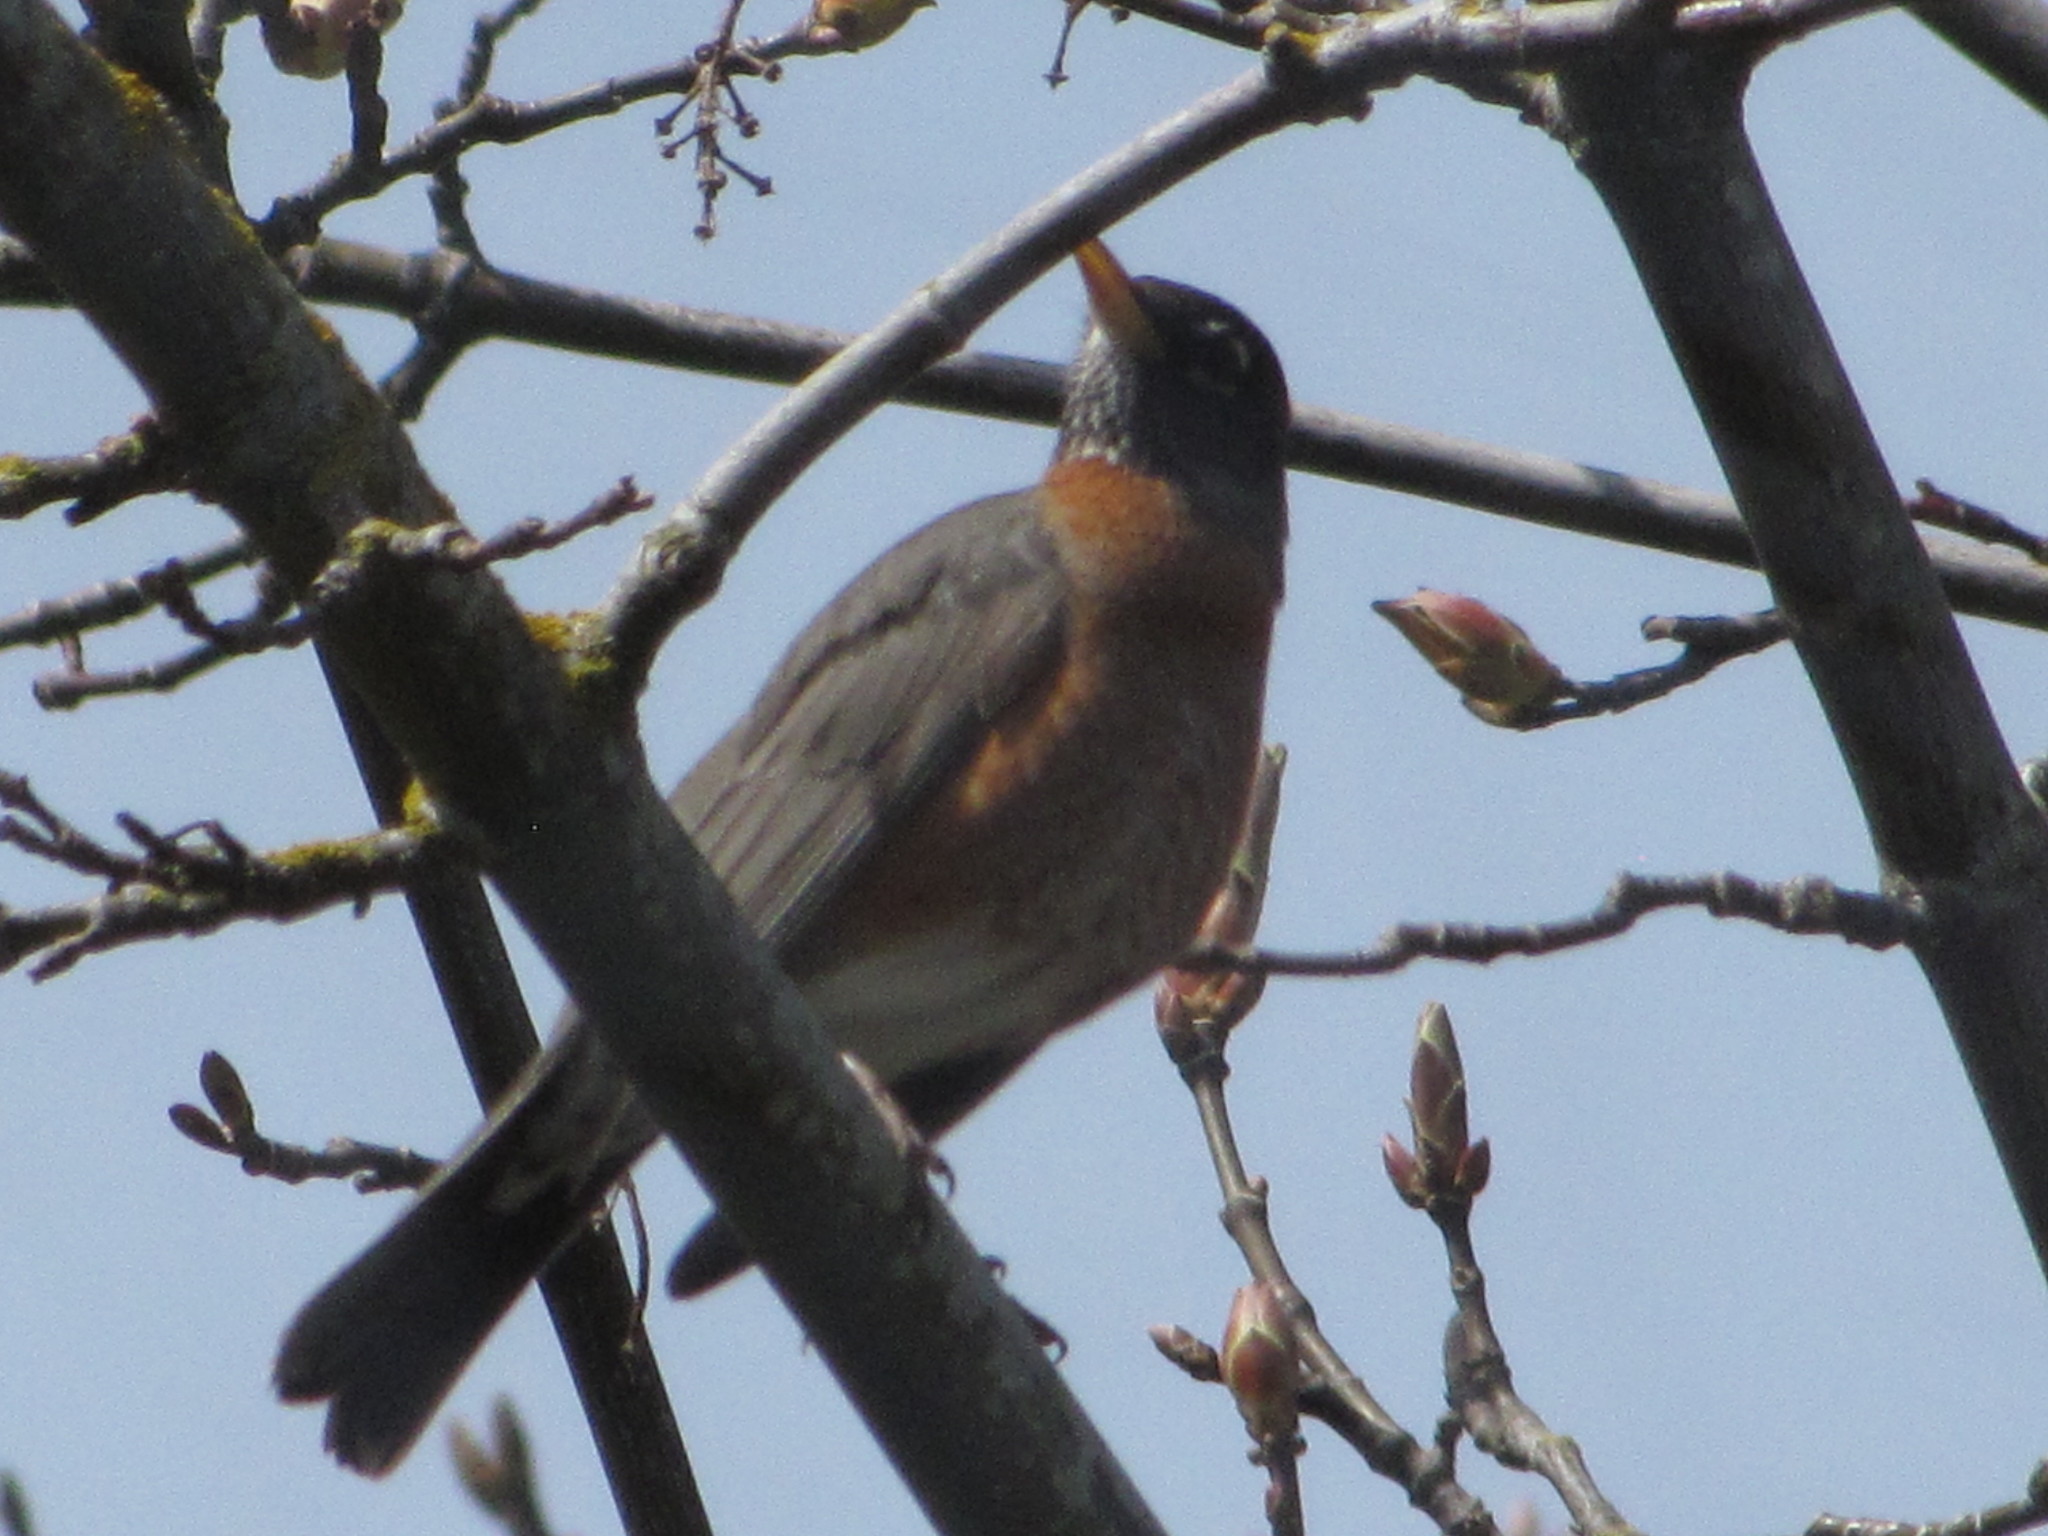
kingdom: Animalia
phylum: Chordata
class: Aves
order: Passeriformes
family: Turdidae
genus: Turdus
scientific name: Turdus migratorius
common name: American robin
